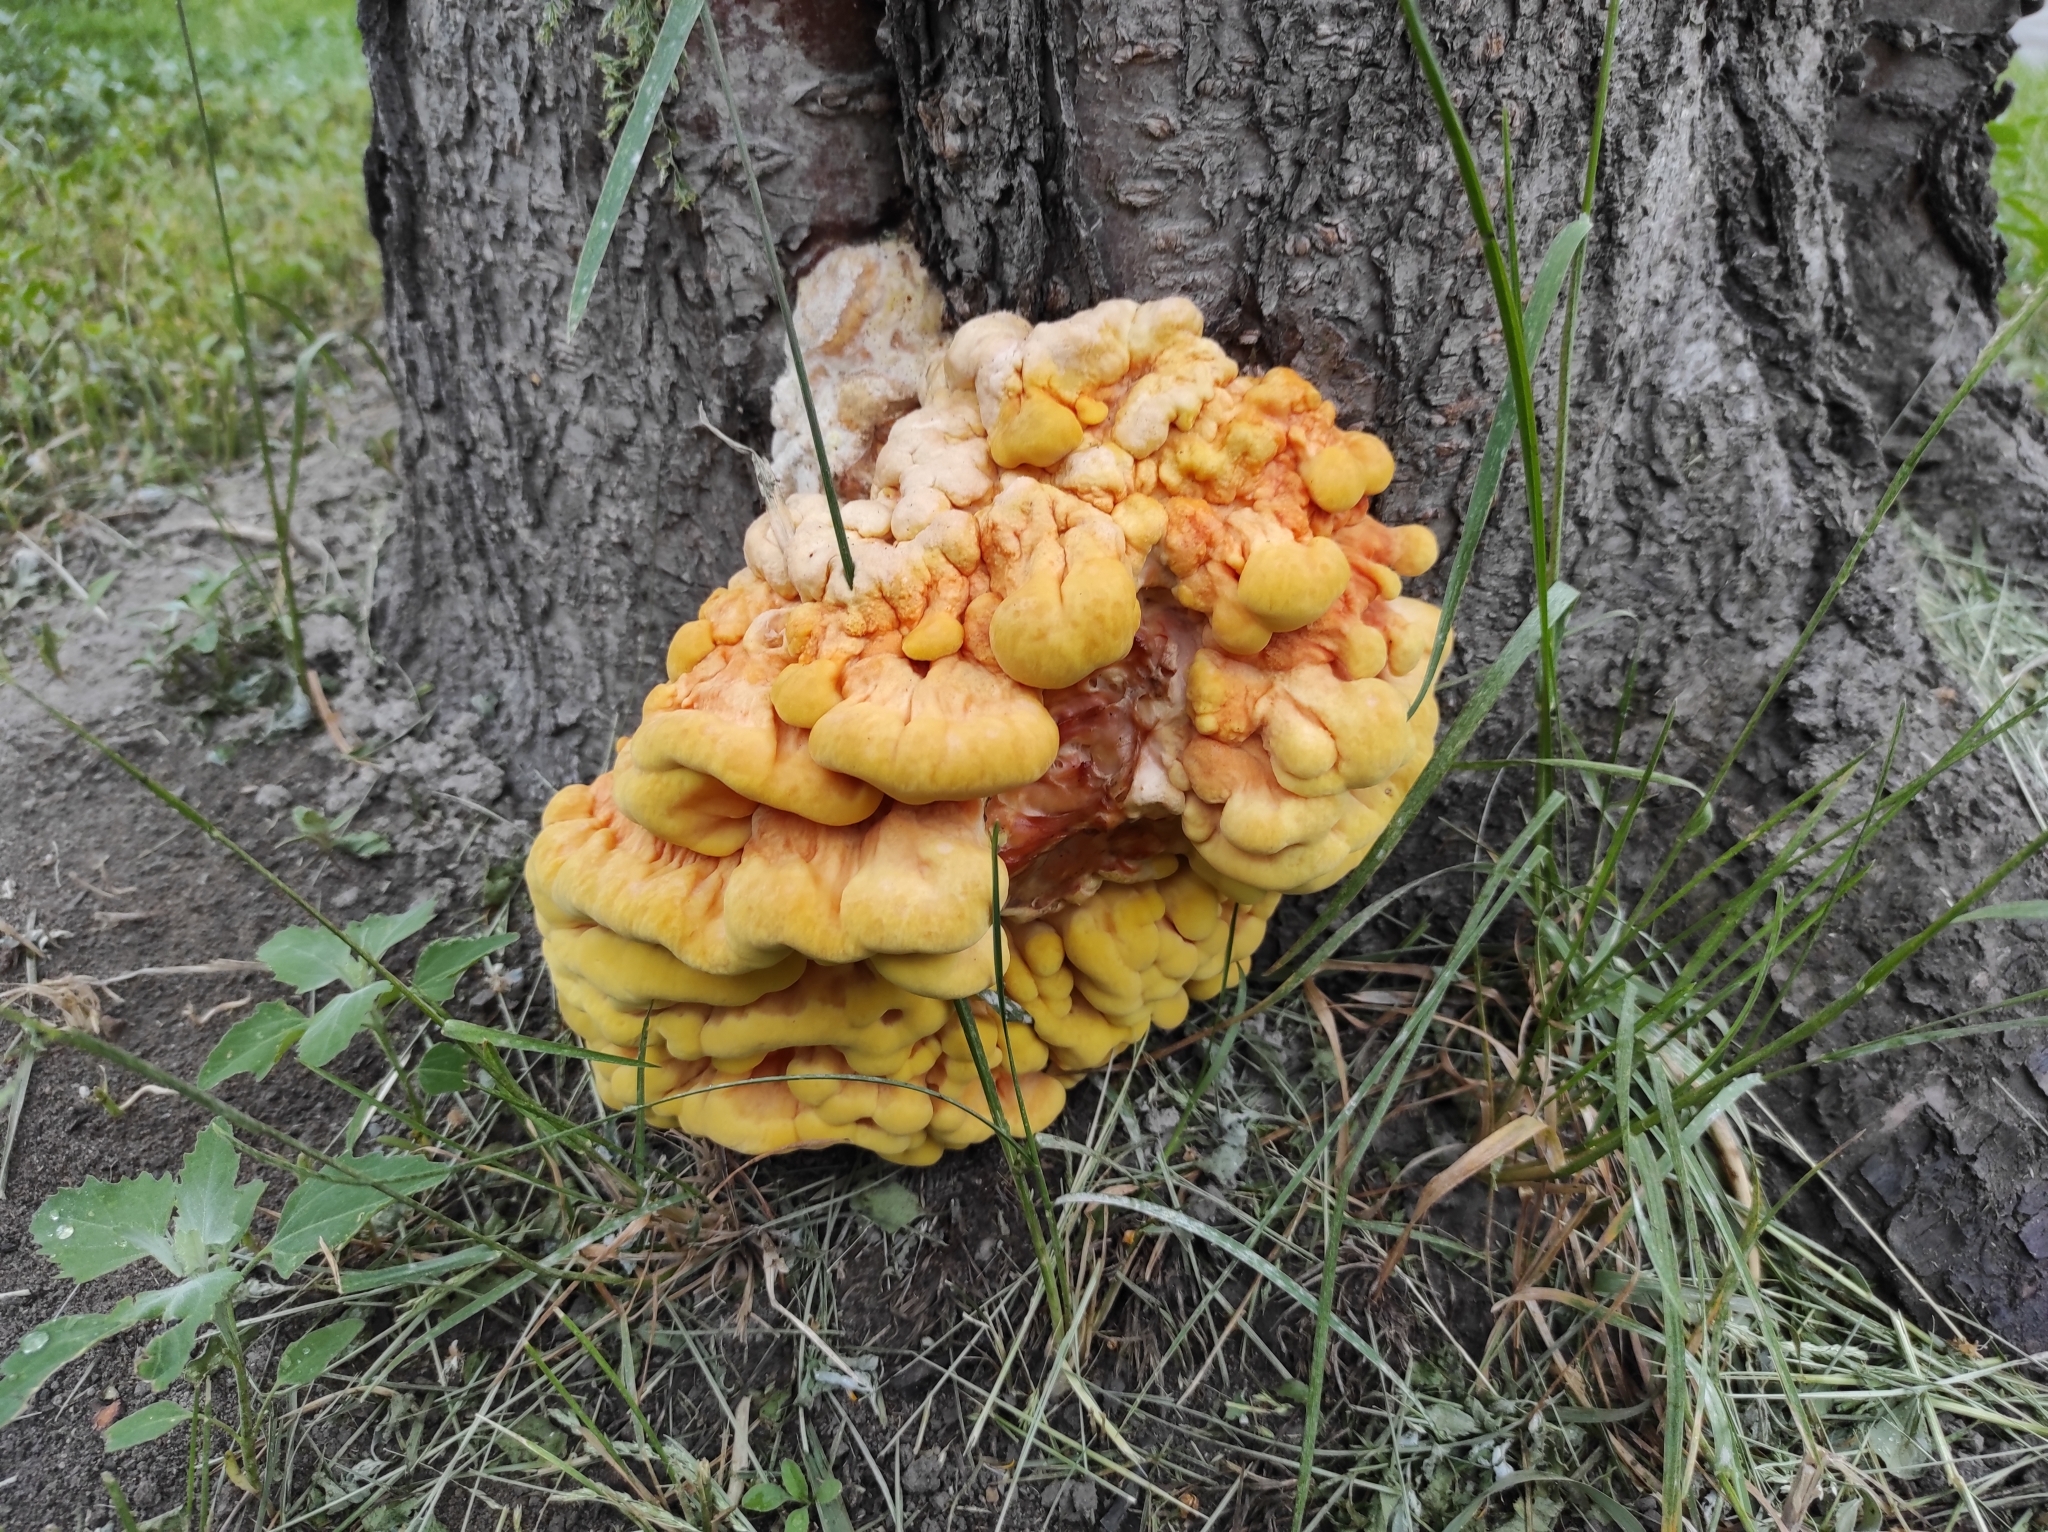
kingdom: Fungi
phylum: Basidiomycota
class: Agaricomycetes
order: Polyporales
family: Laetiporaceae
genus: Laetiporus
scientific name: Laetiporus sulphureus
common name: Chicken of the woods
